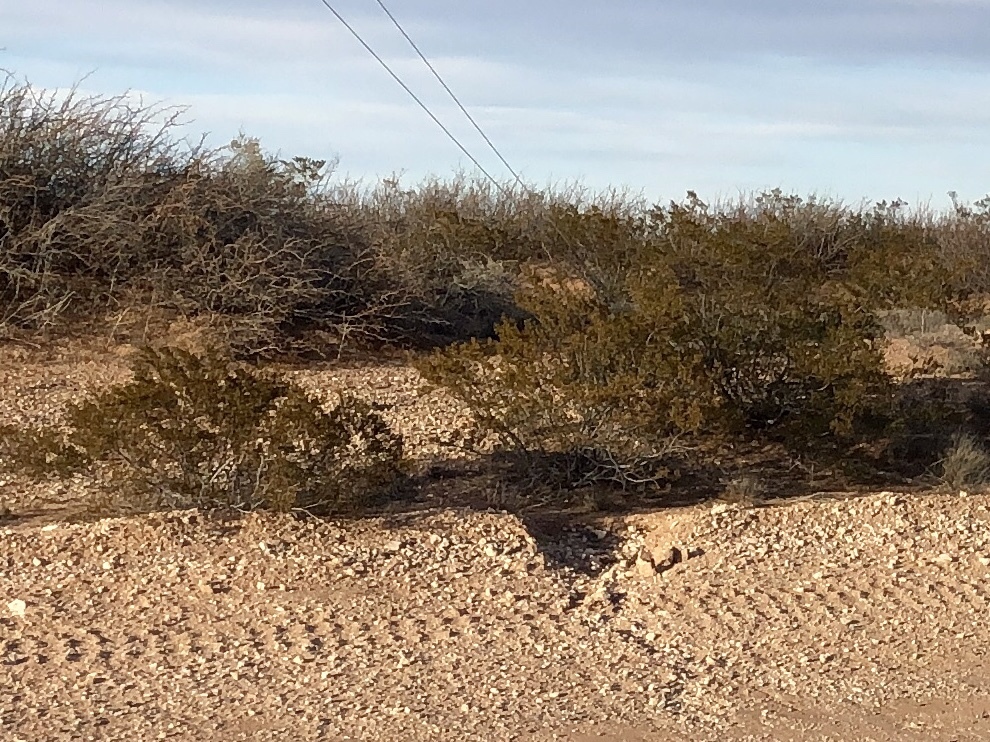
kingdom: Plantae
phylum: Tracheophyta
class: Magnoliopsida
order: Zygophyllales
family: Zygophyllaceae
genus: Larrea
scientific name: Larrea tridentata
